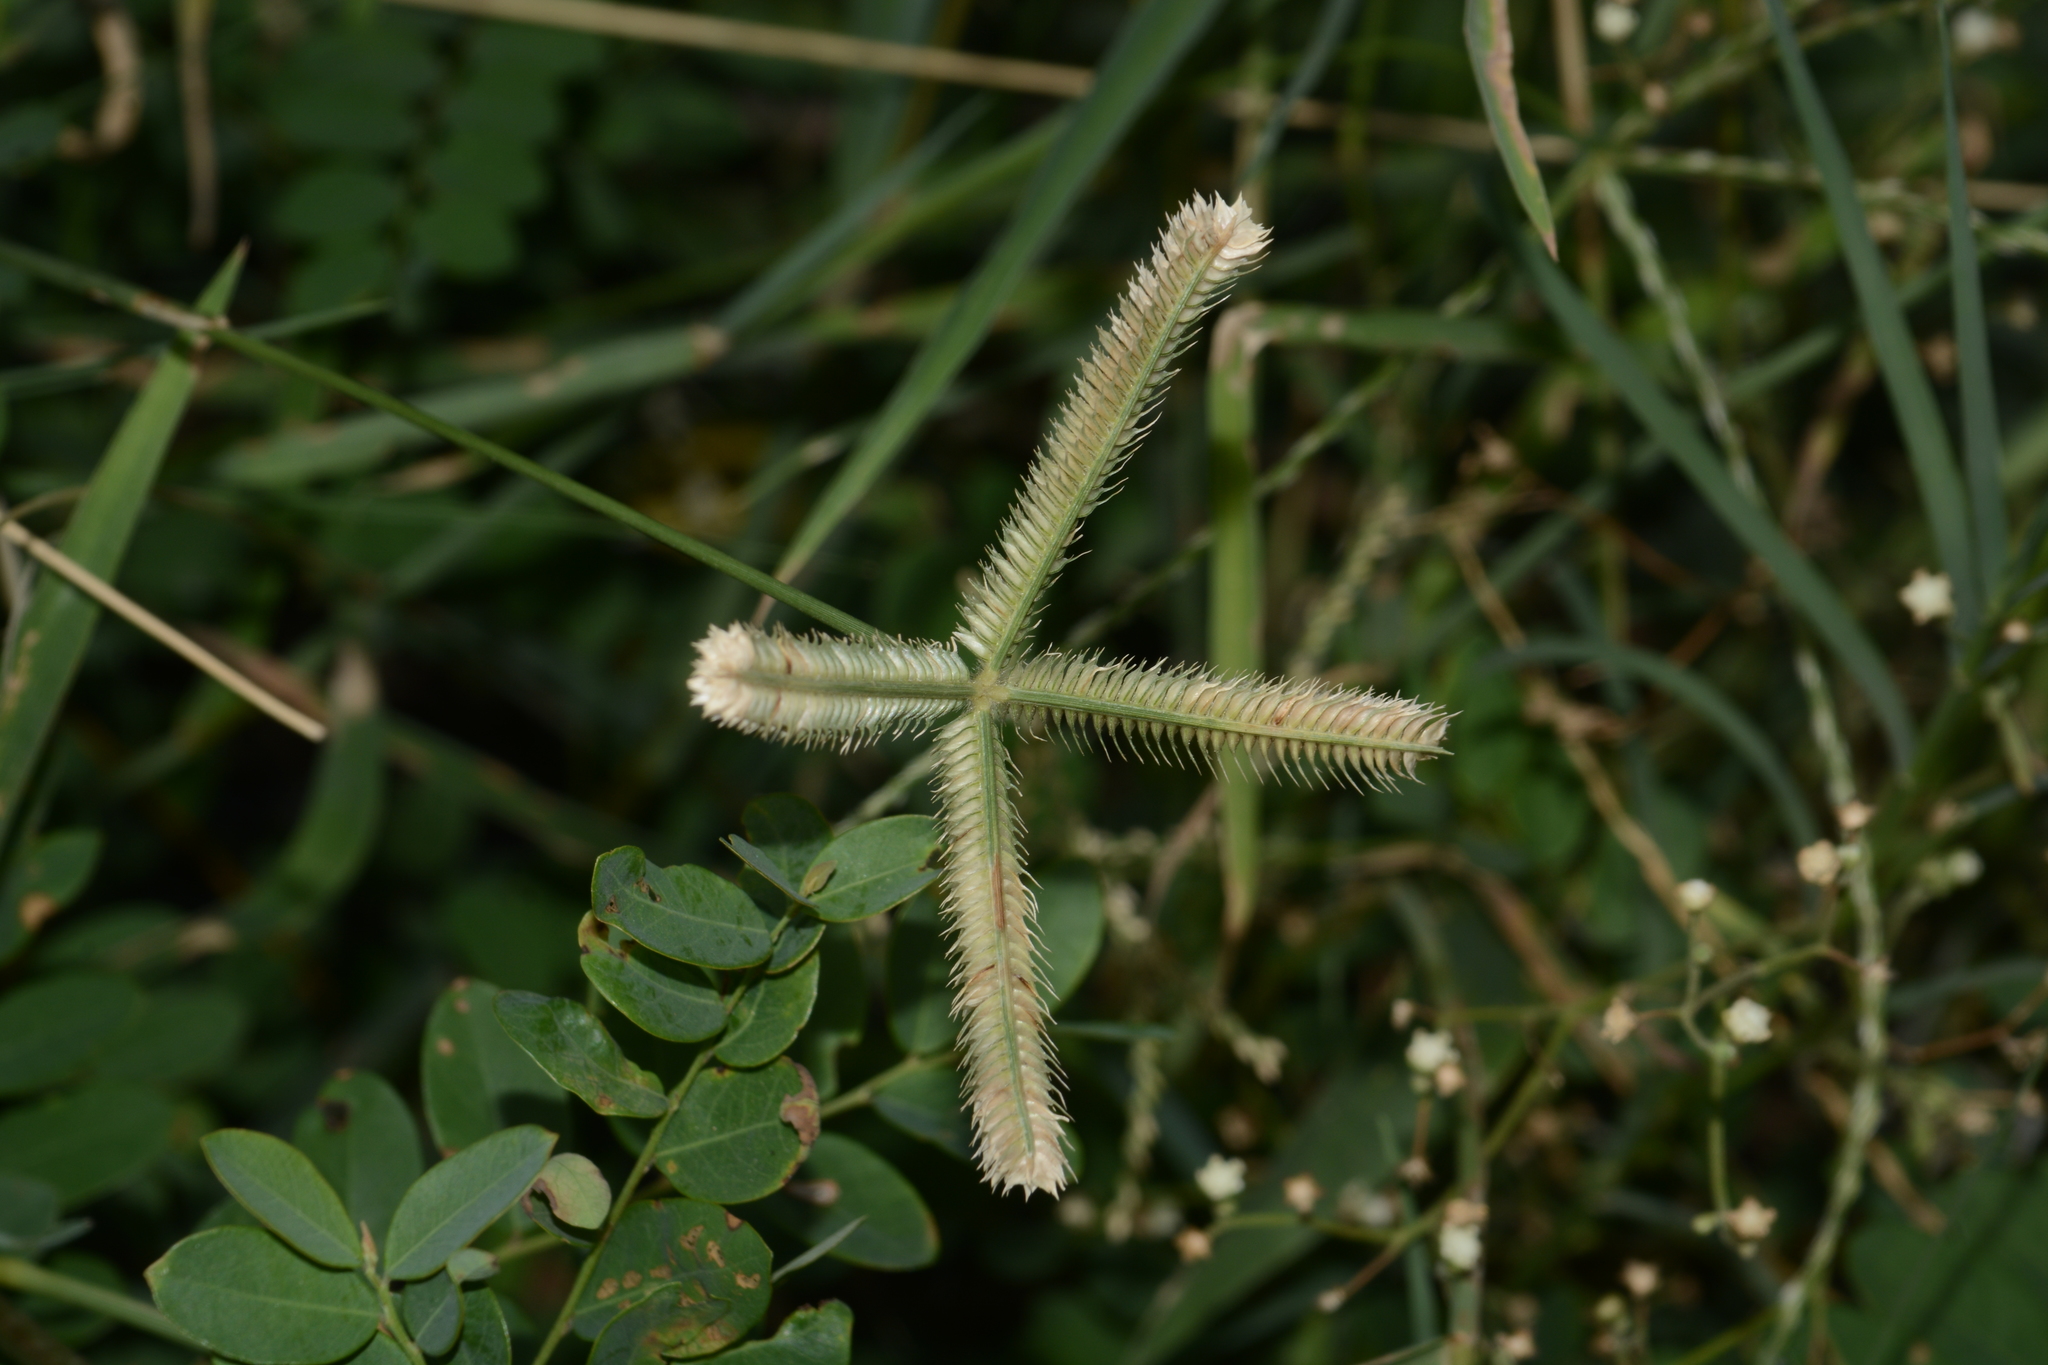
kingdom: Plantae
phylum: Tracheophyta
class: Liliopsida
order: Poales
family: Poaceae
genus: Dactyloctenium
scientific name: Dactyloctenium aegyptium
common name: Egyptian grass
